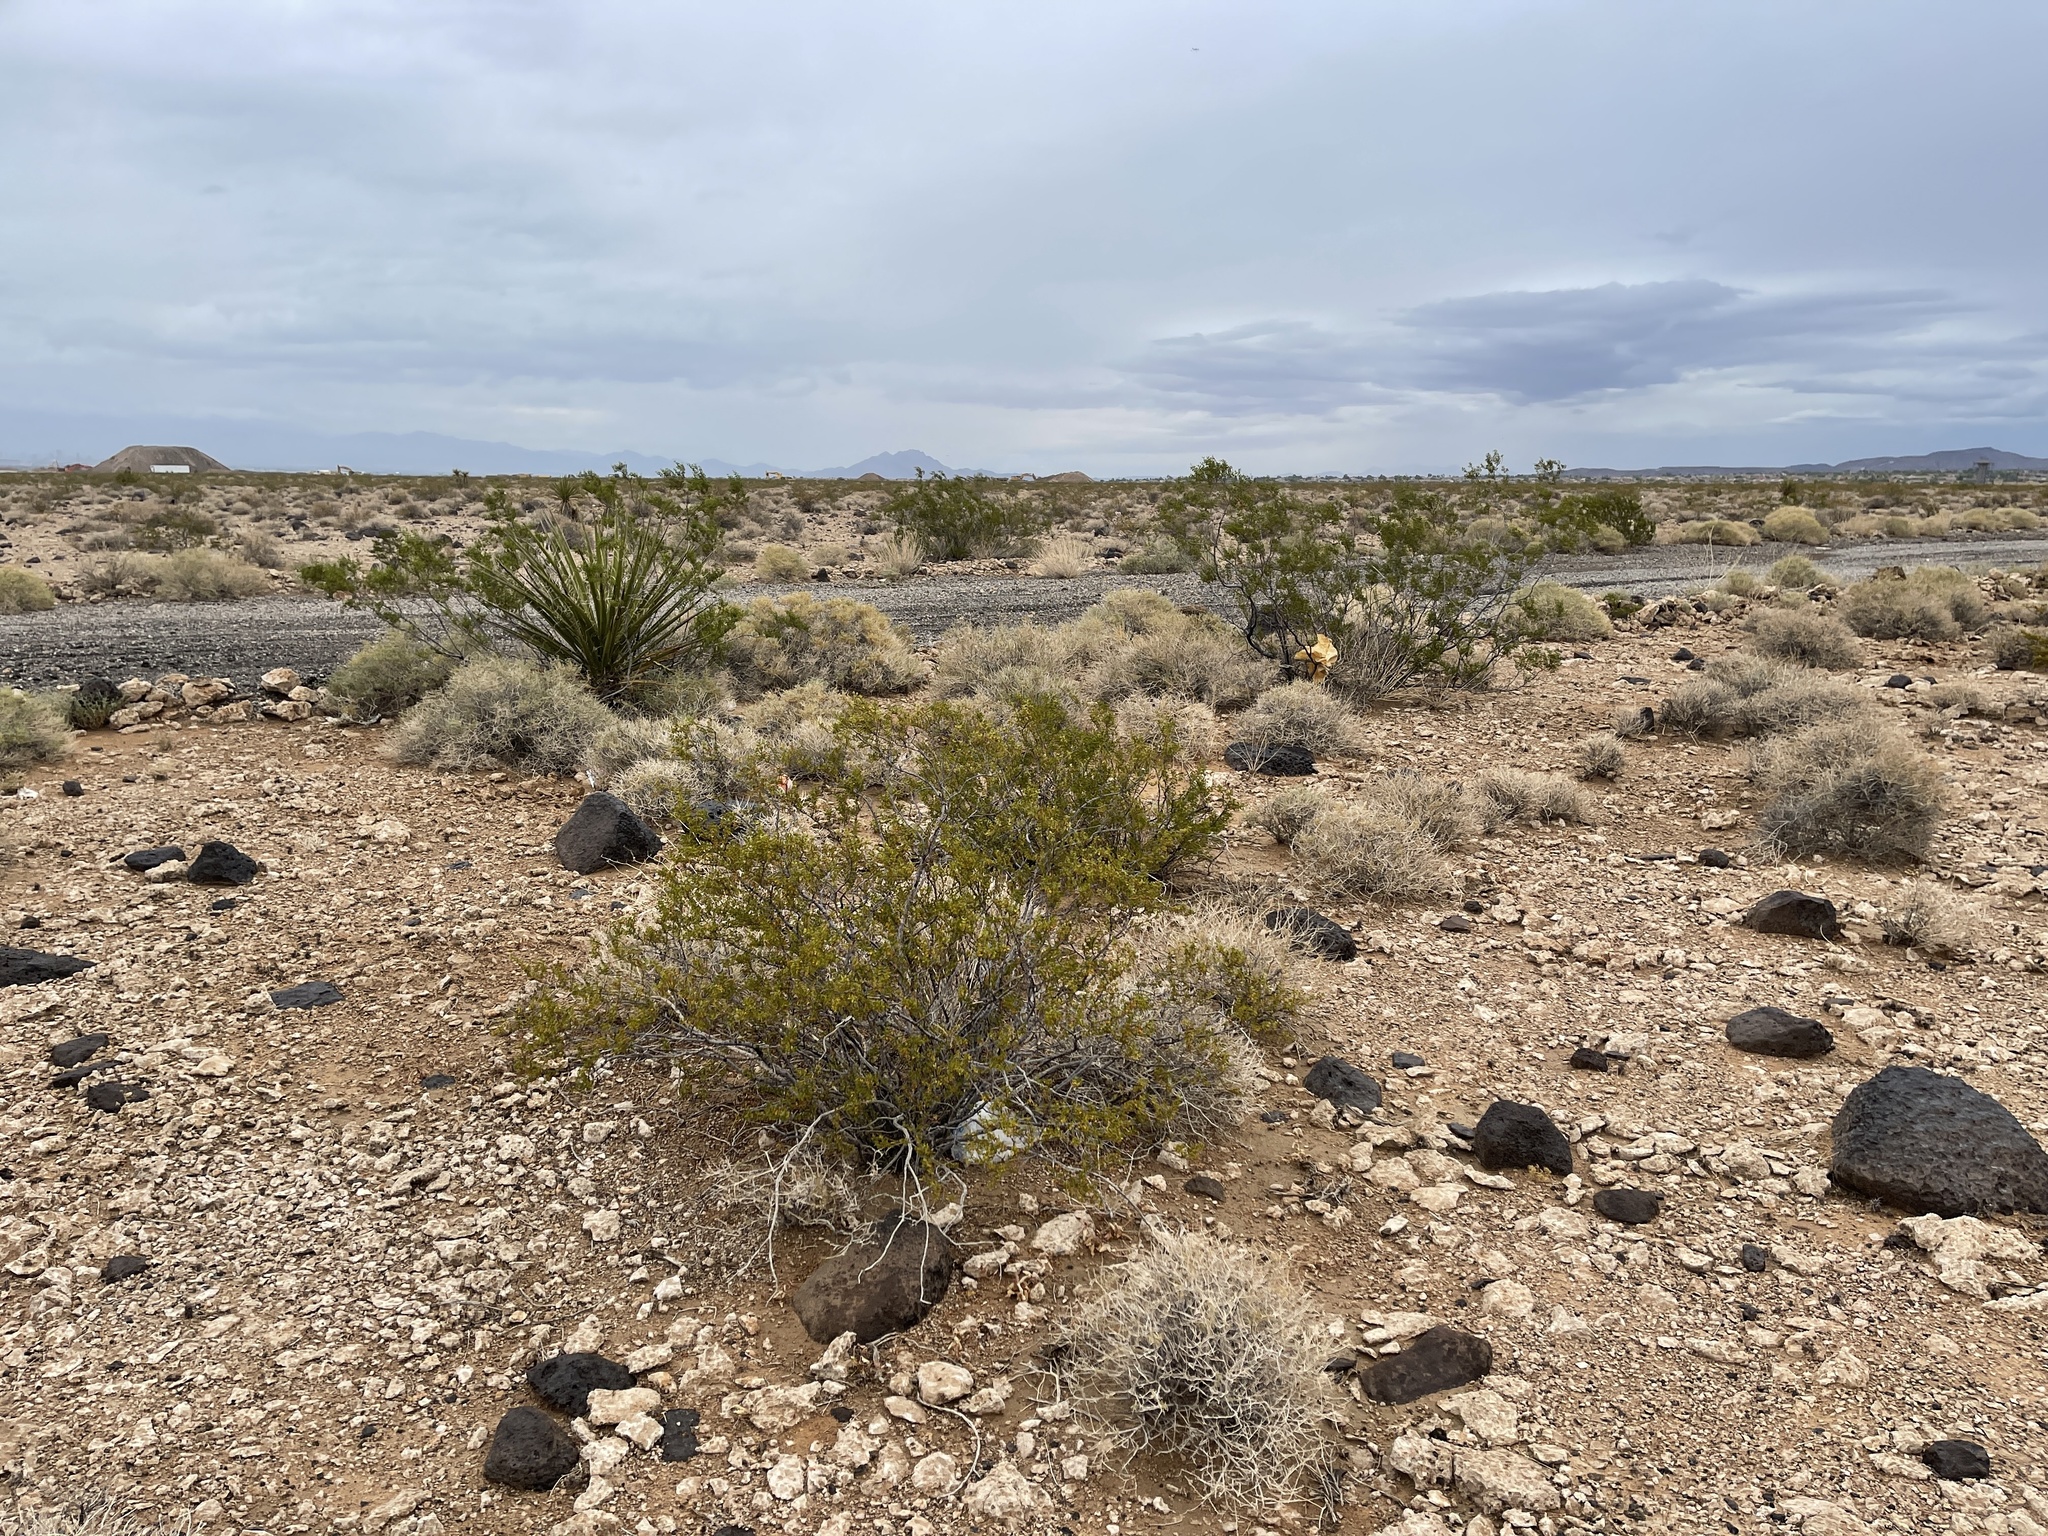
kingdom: Plantae
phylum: Tracheophyta
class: Magnoliopsida
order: Zygophyllales
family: Zygophyllaceae
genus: Larrea
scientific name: Larrea tridentata
